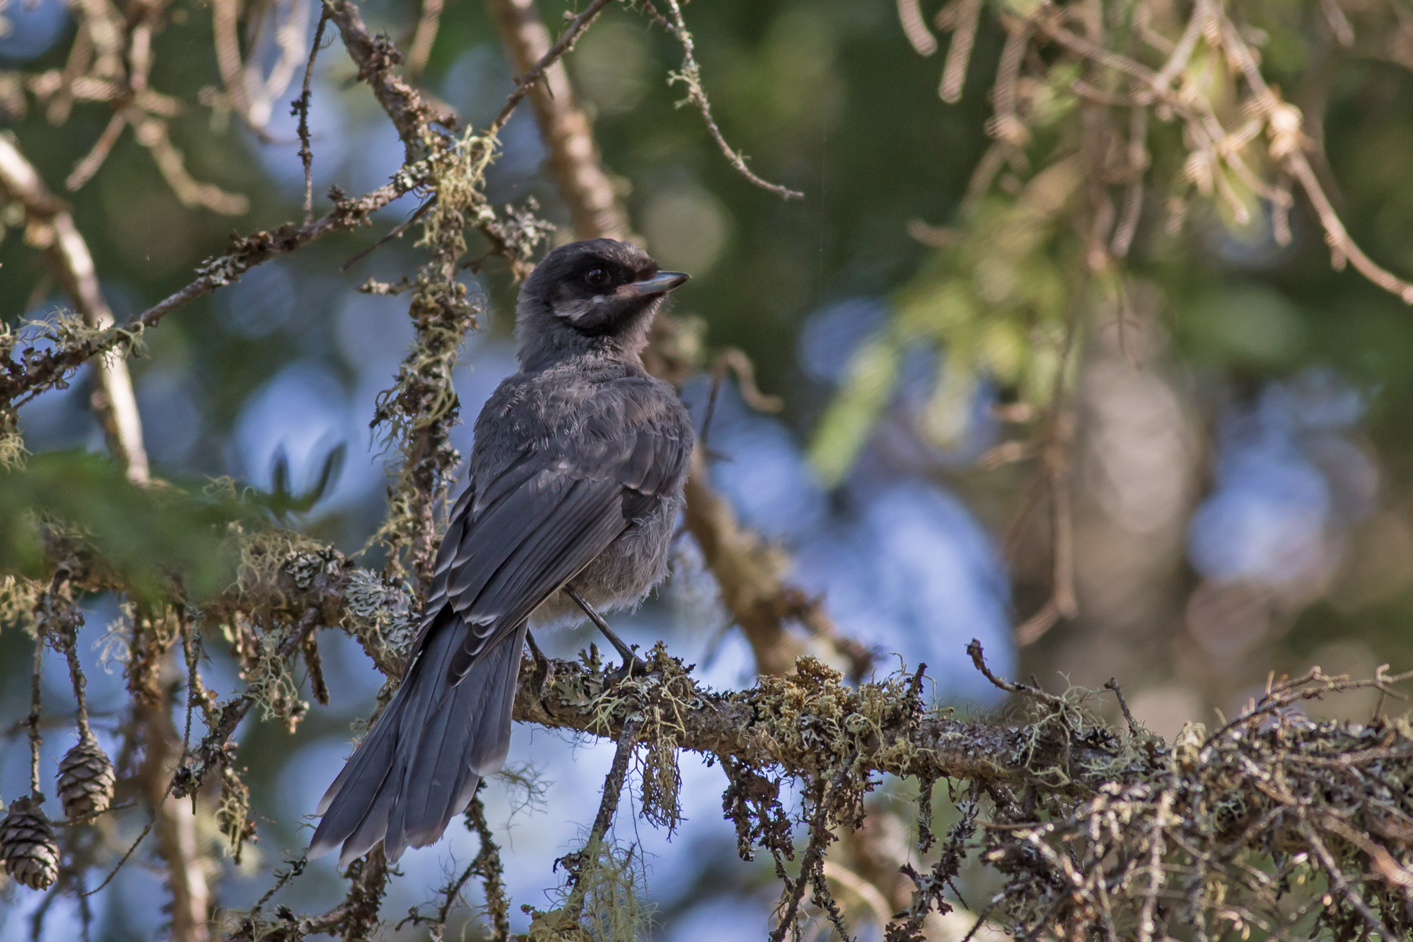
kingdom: Animalia
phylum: Chordata
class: Aves
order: Passeriformes
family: Corvidae
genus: Perisoreus
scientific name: Perisoreus canadensis
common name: Gray jay
